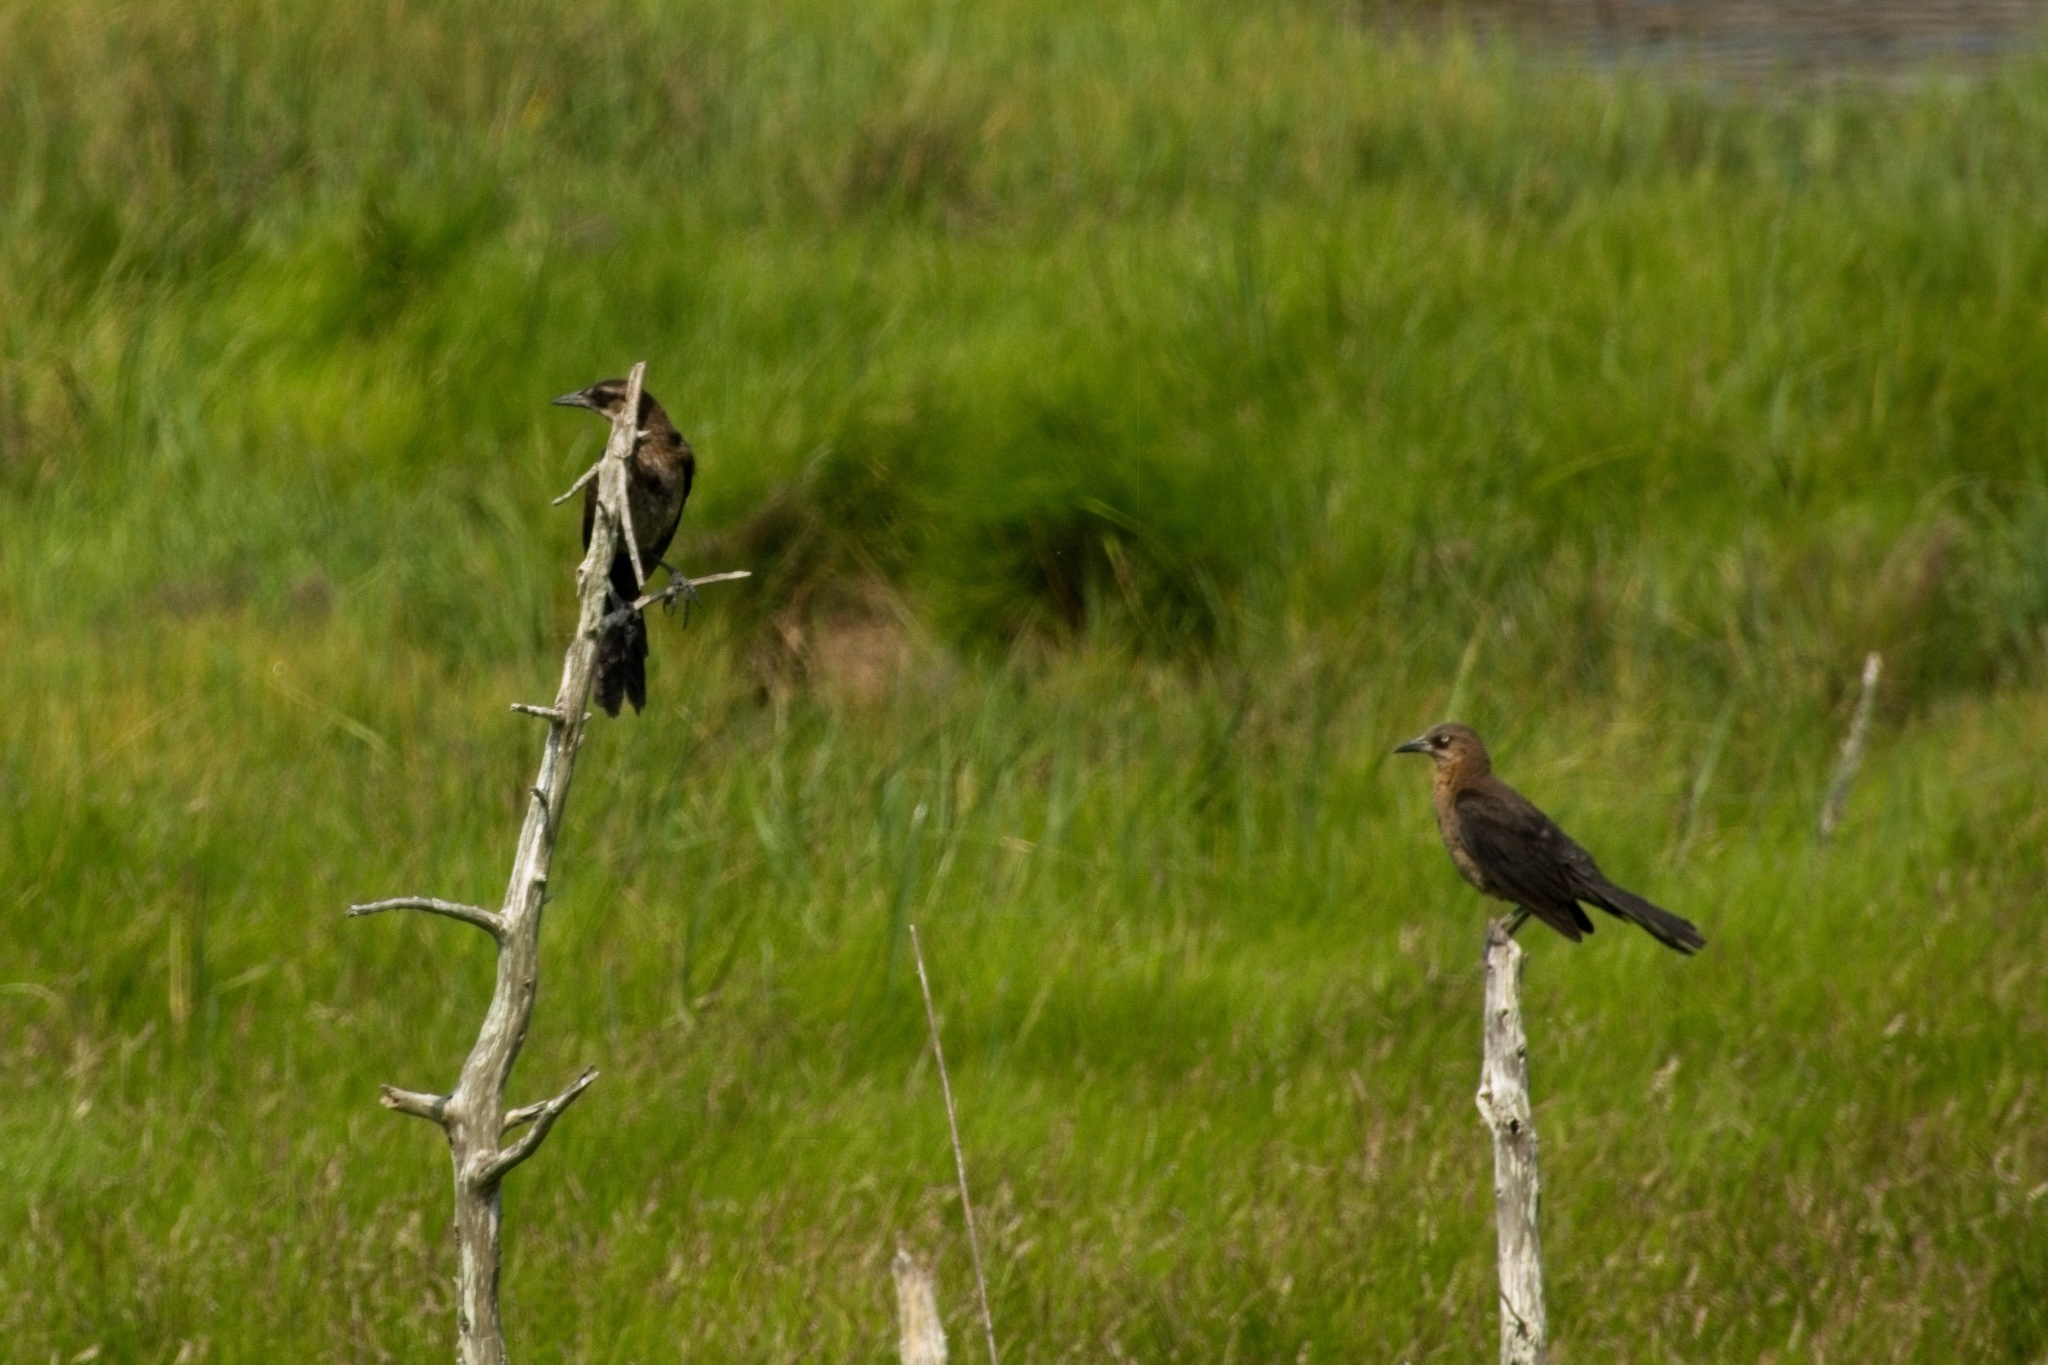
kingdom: Animalia
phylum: Chordata
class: Aves
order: Passeriformes
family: Icteridae
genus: Quiscalus
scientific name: Quiscalus major
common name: Boat-tailed grackle
